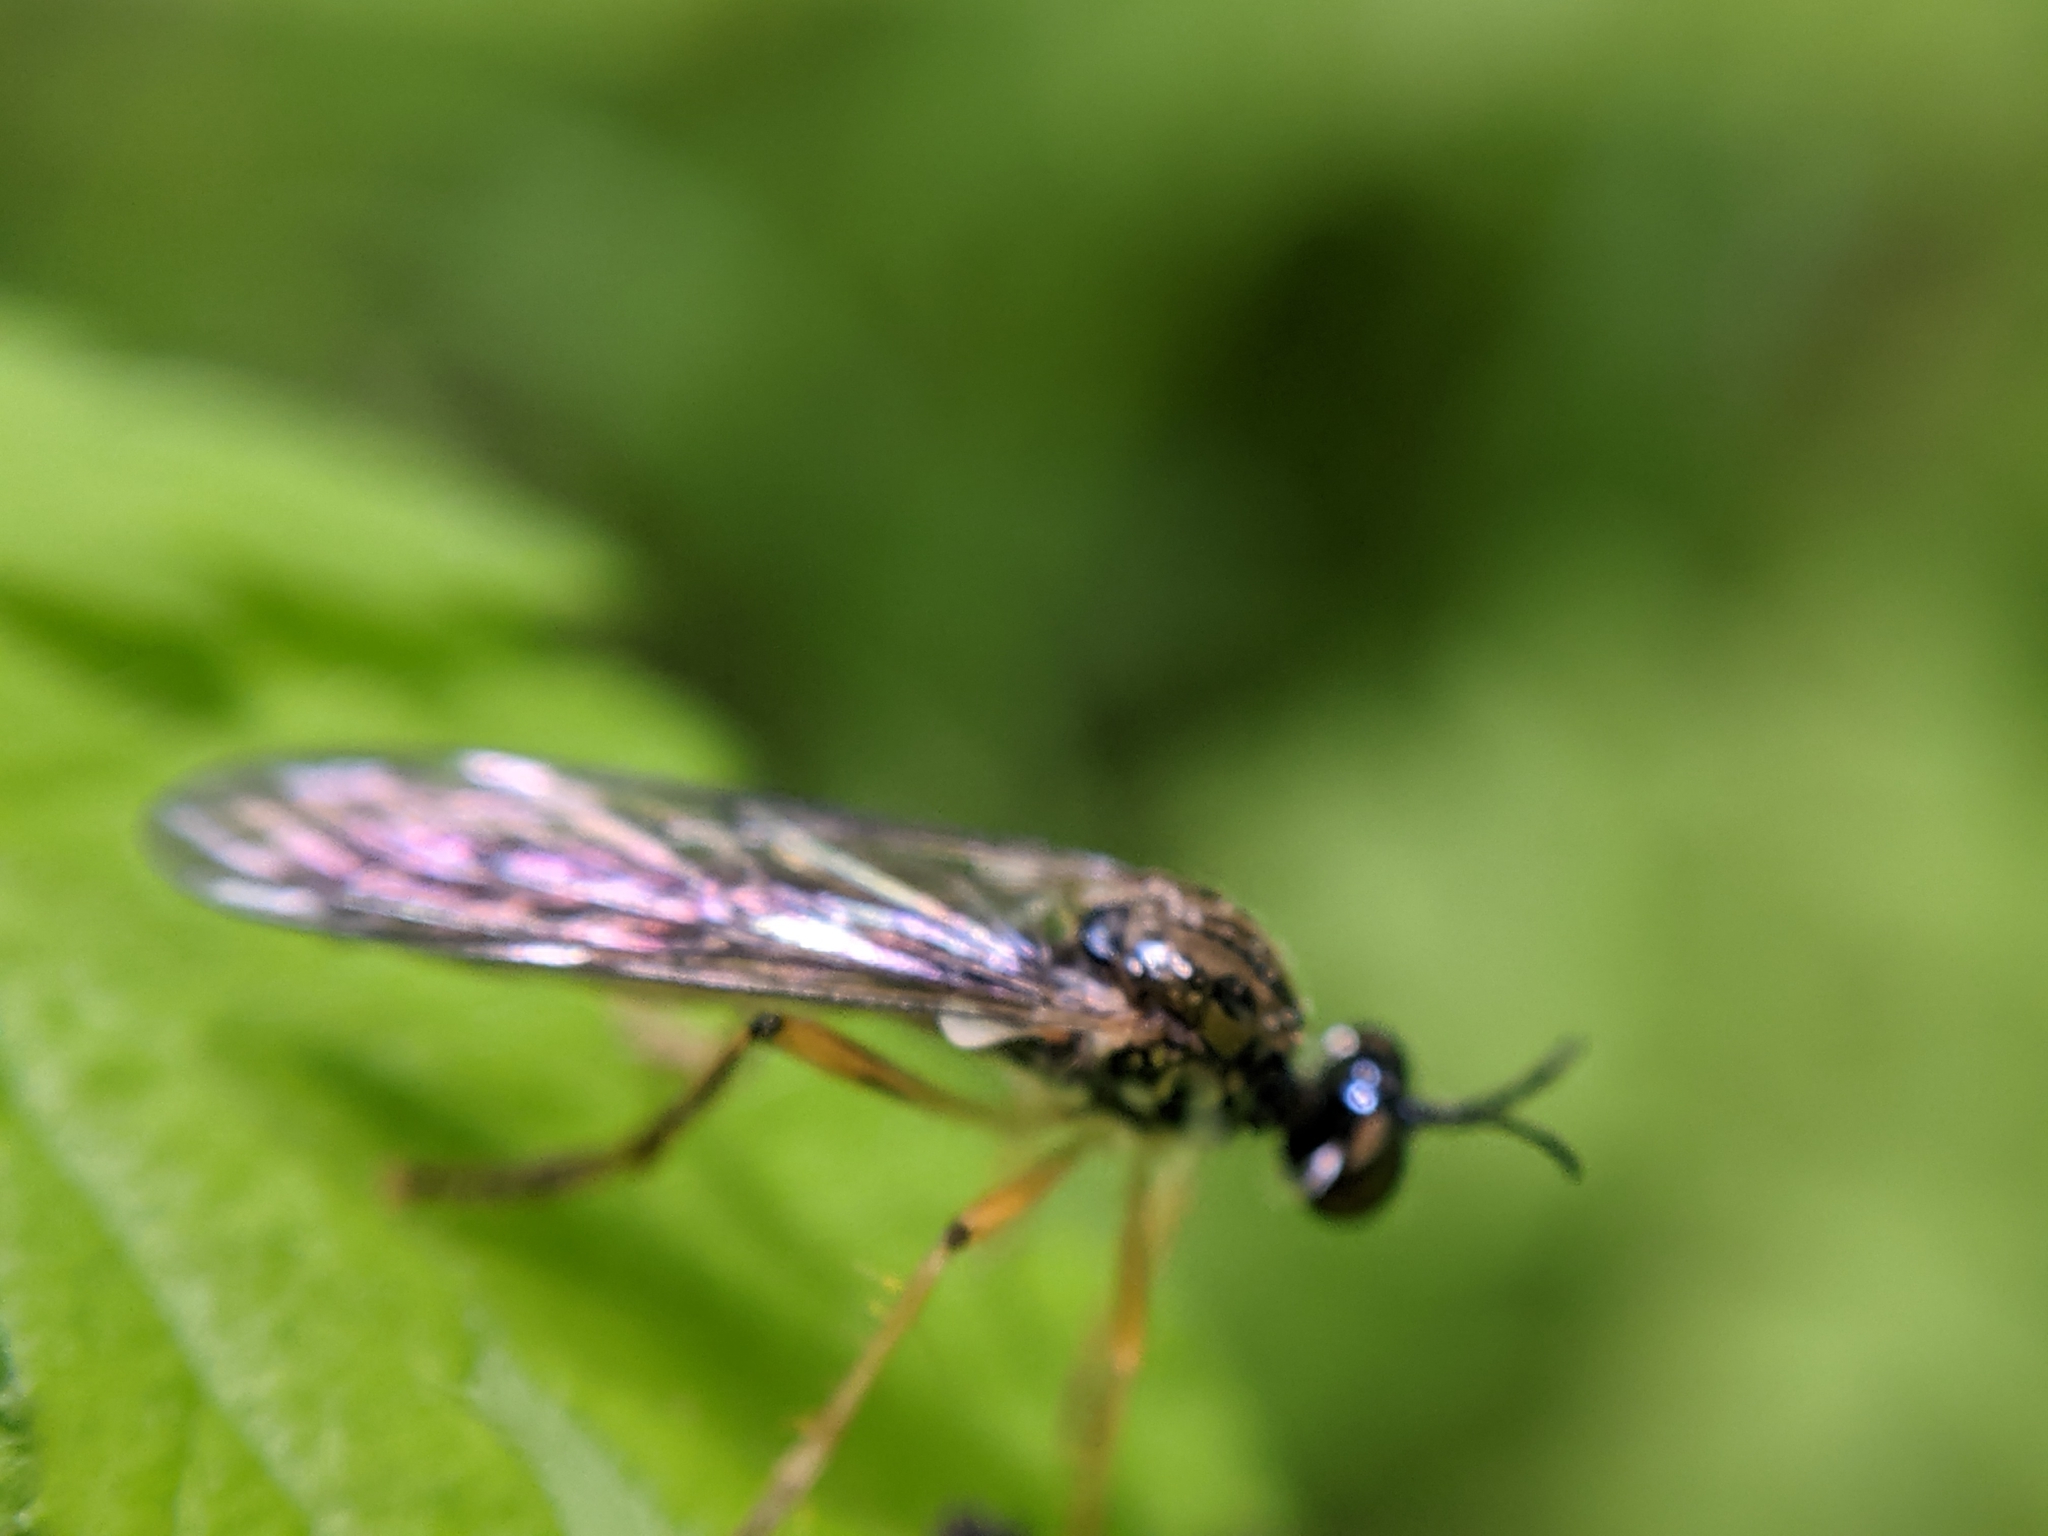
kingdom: Animalia
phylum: Arthropoda
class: Insecta
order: Diptera
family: Asilidae
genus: Dioctria
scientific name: Dioctria linearis
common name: Small yellow-legged robberfly
